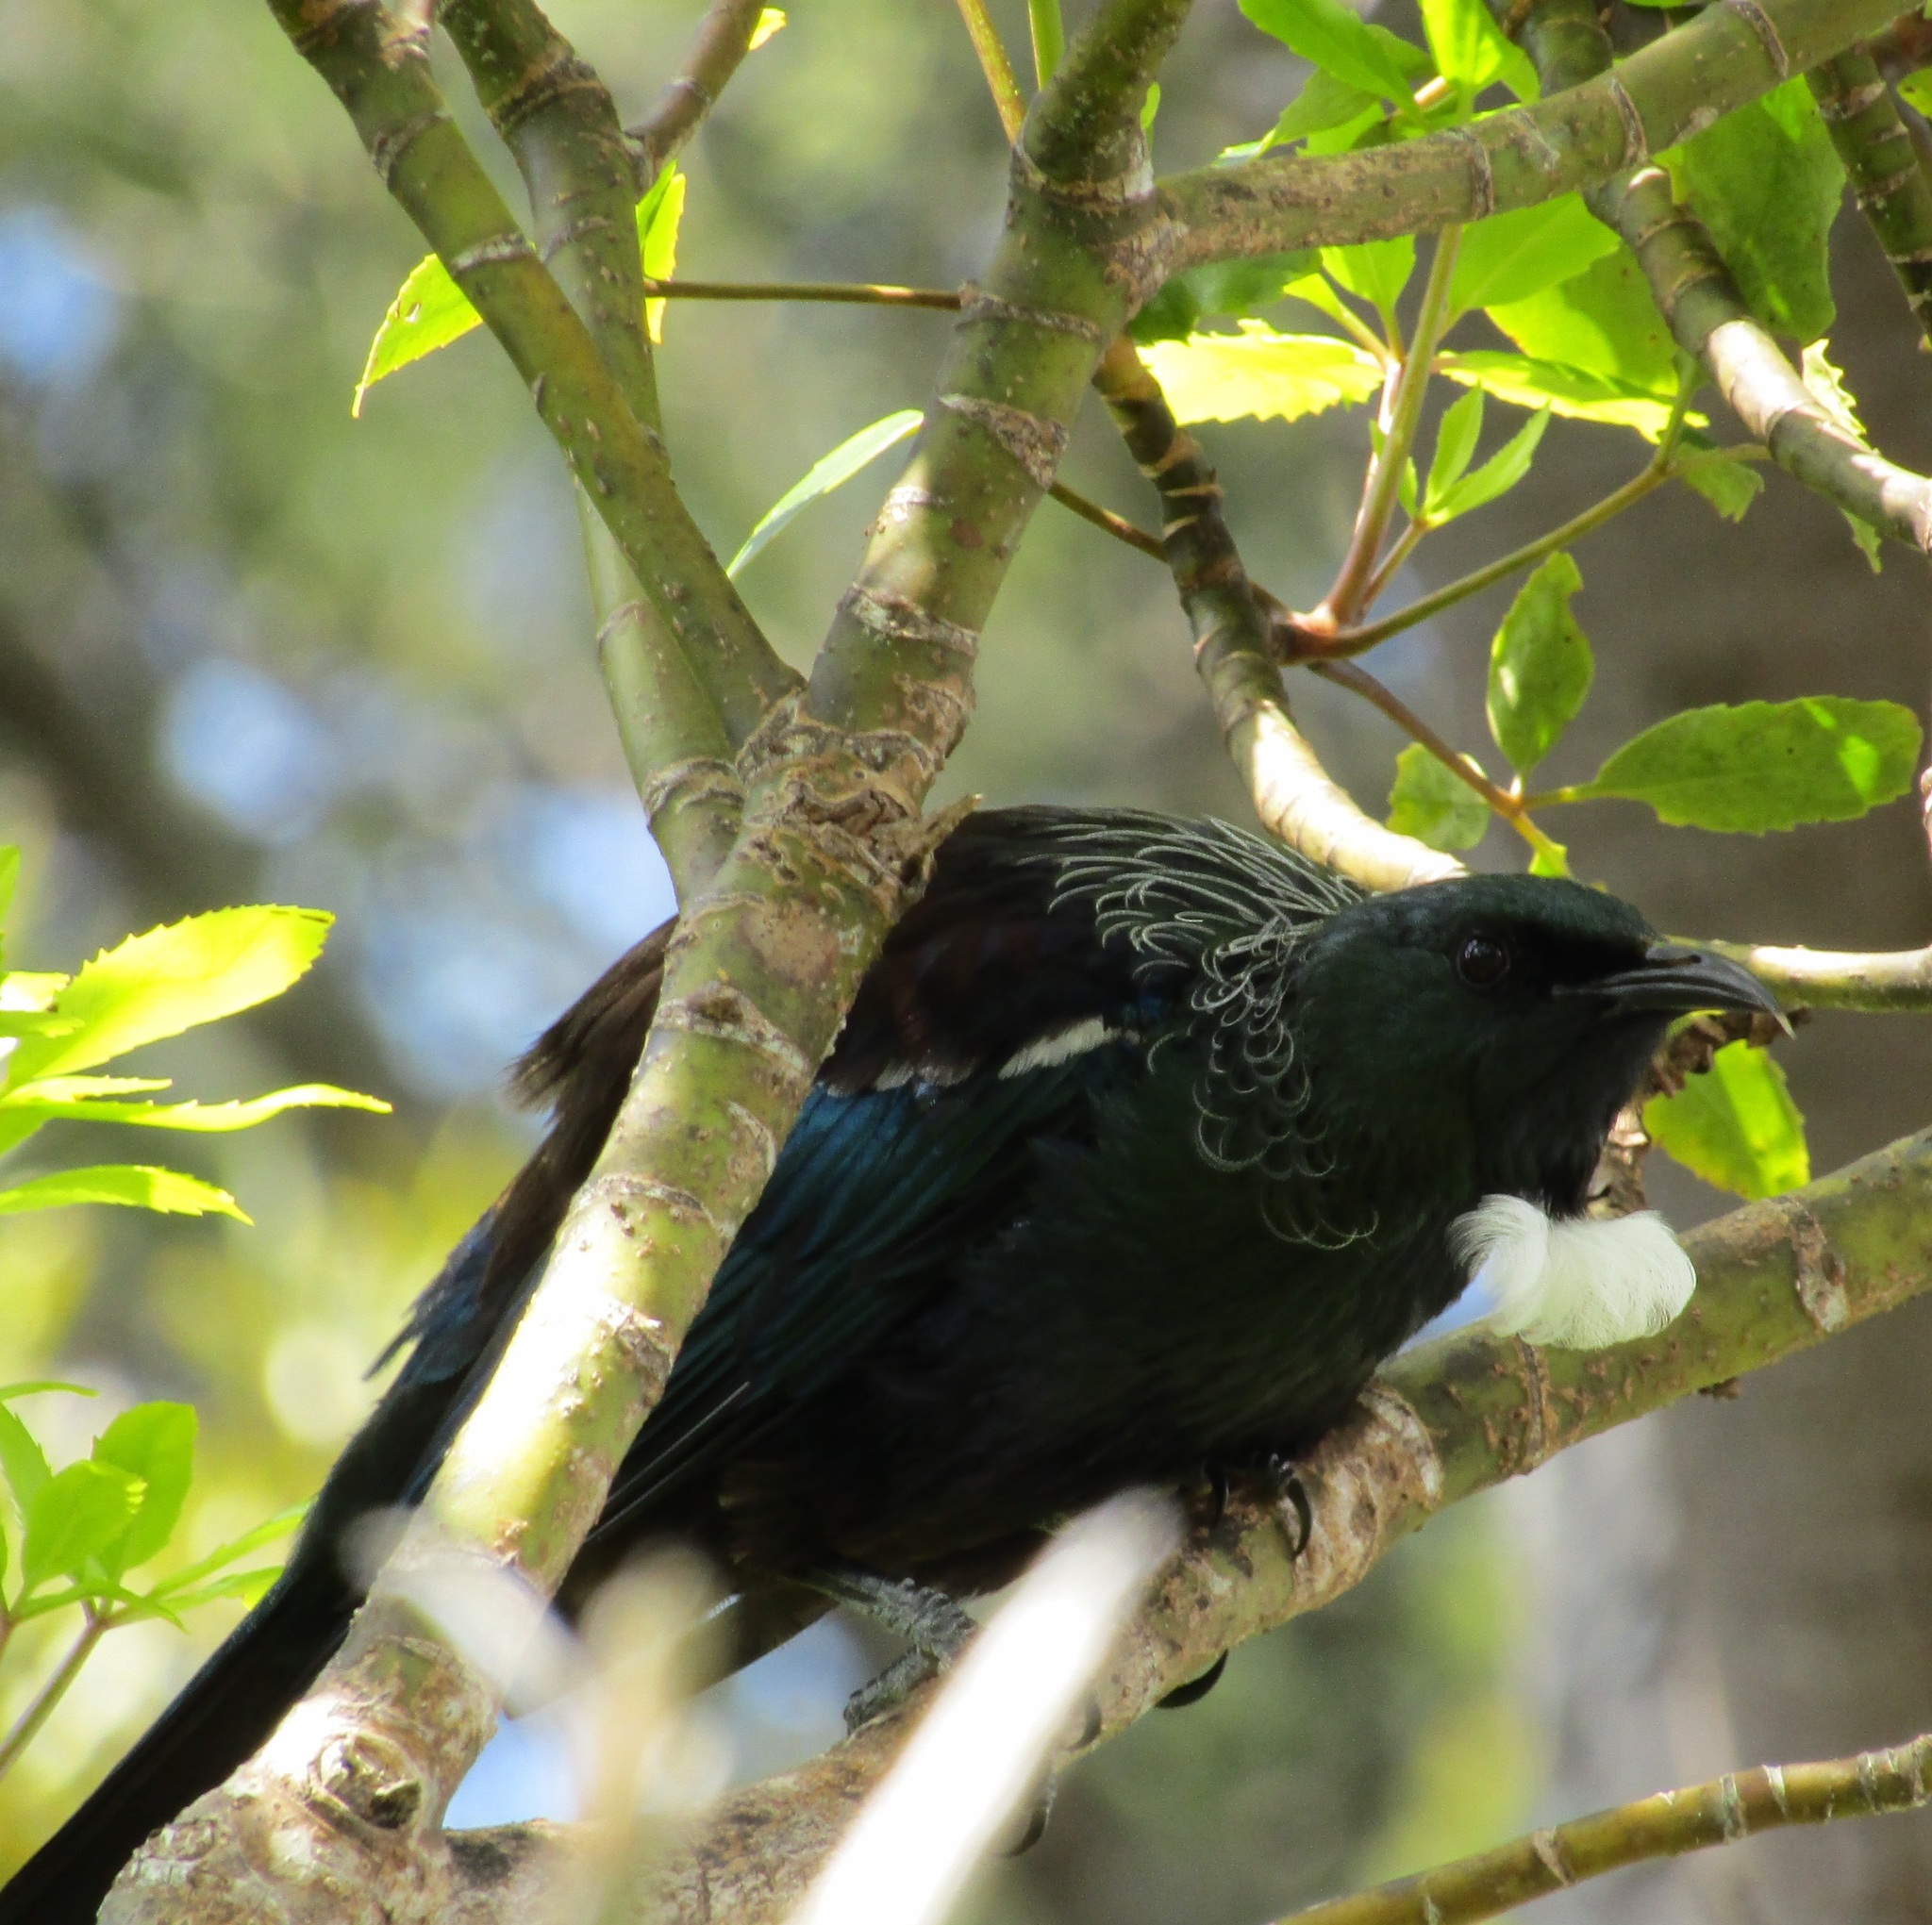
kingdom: Animalia
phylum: Chordata
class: Aves
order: Passeriformes
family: Meliphagidae
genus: Prosthemadera
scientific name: Prosthemadera novaeseelandiae
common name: Tui
